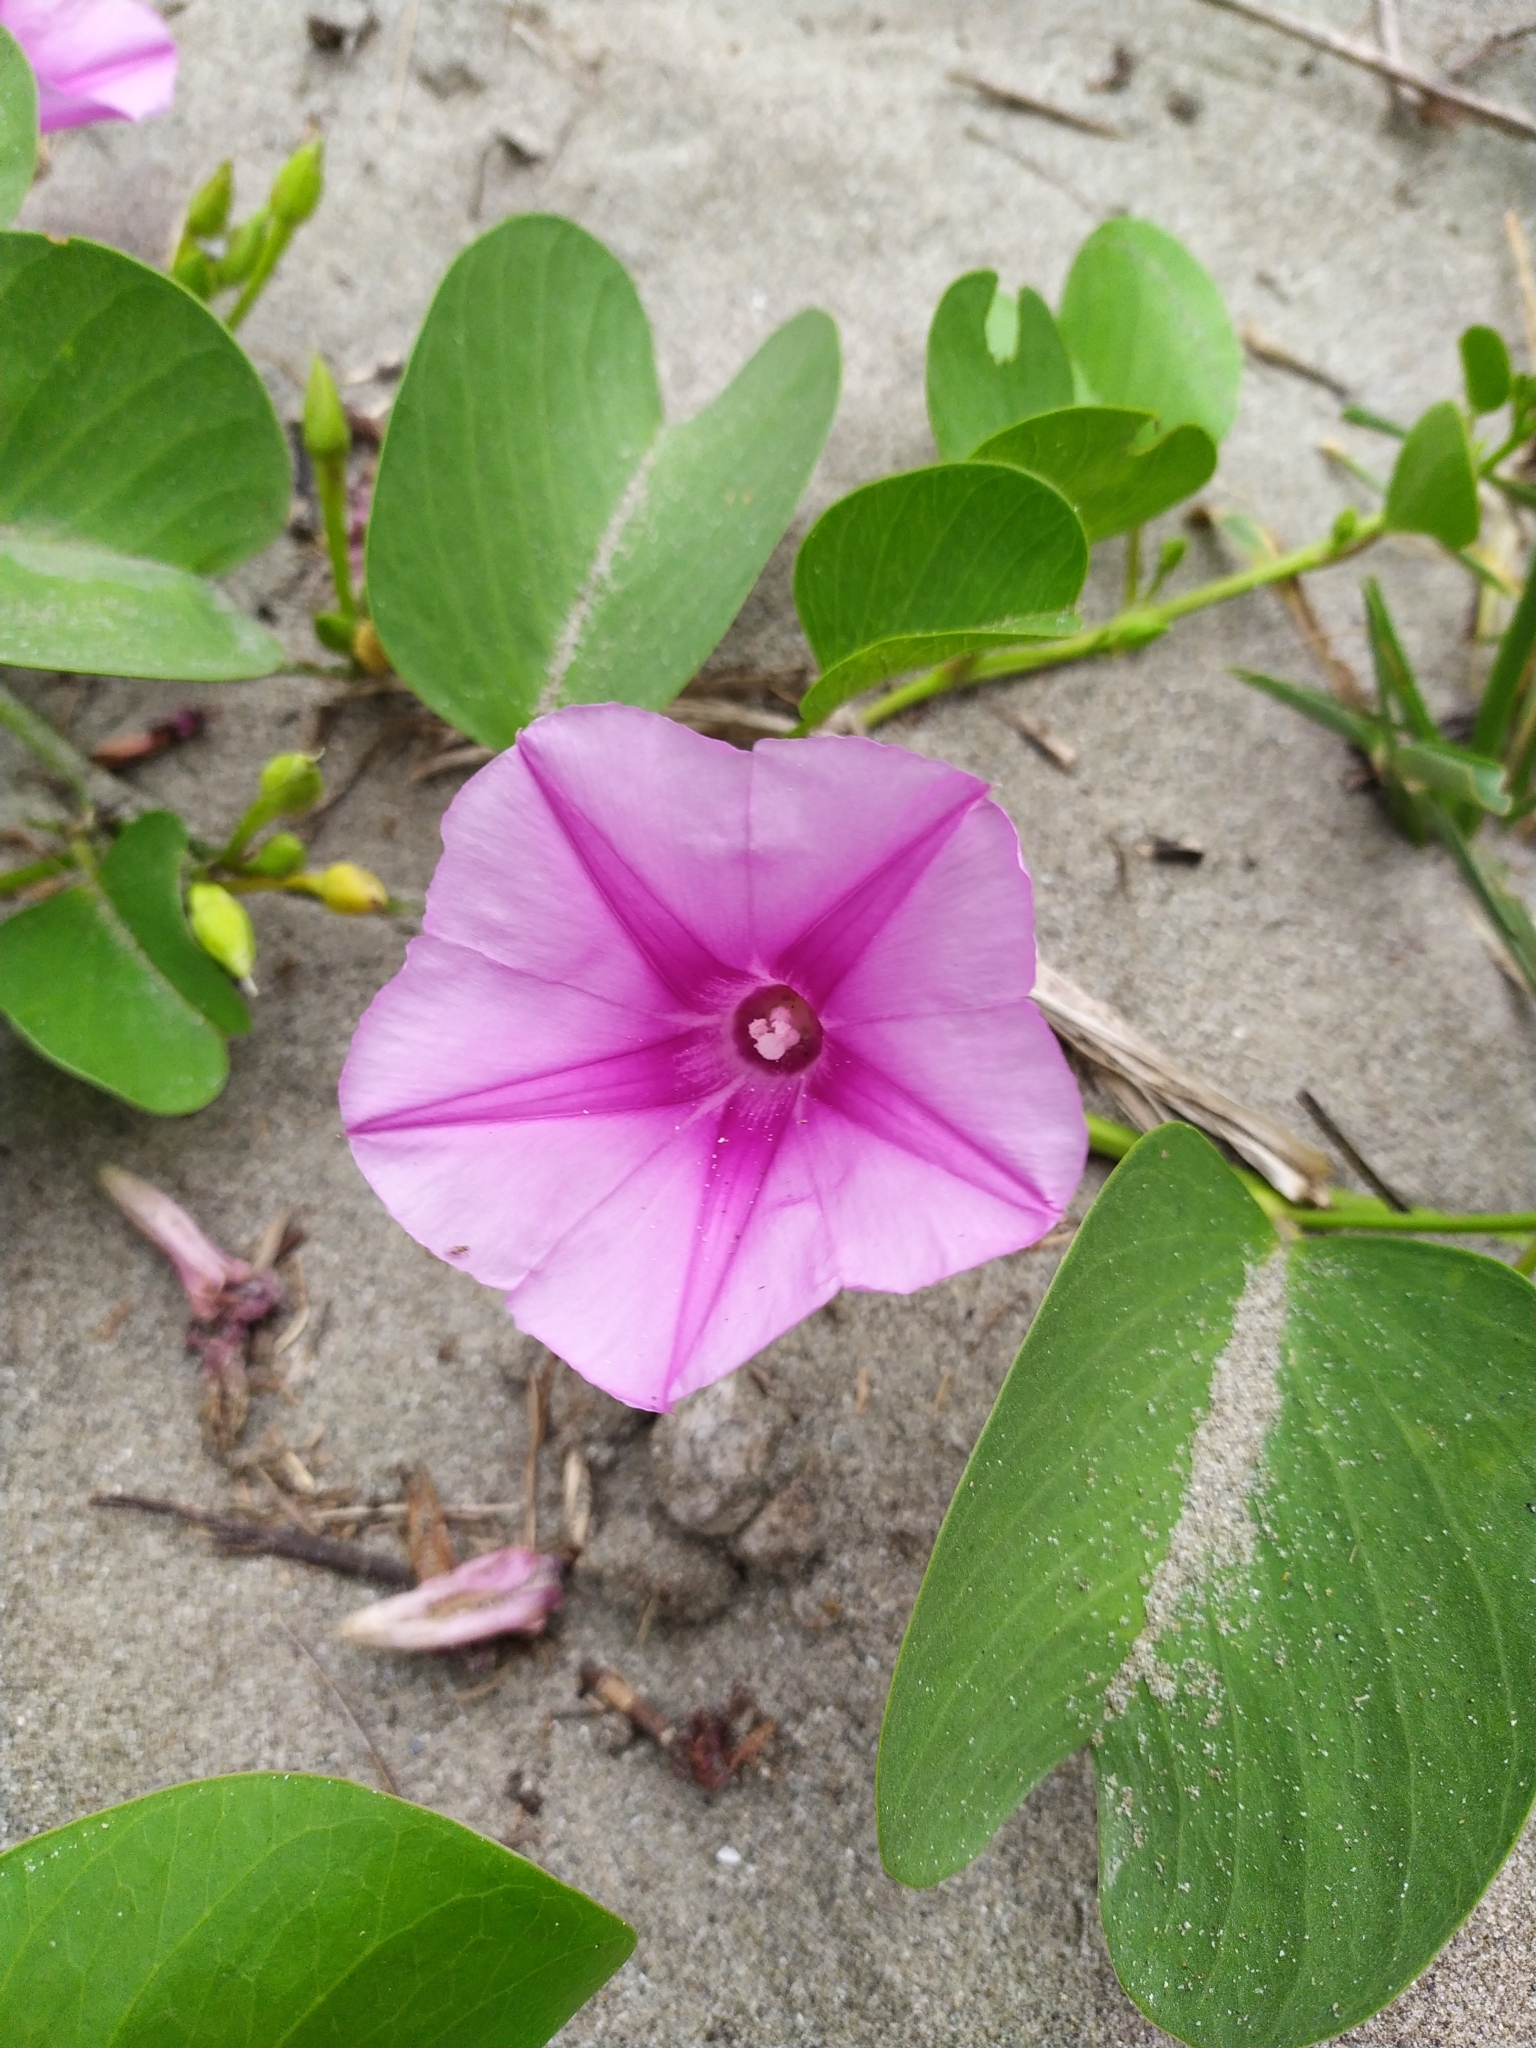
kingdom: Plantae
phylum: Tracheophyta
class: Magnoliopsida
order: Solanales
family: Convolvulaceae
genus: Ipomoea
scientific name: Ipomoea pes-caprae
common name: Beach morning glory
